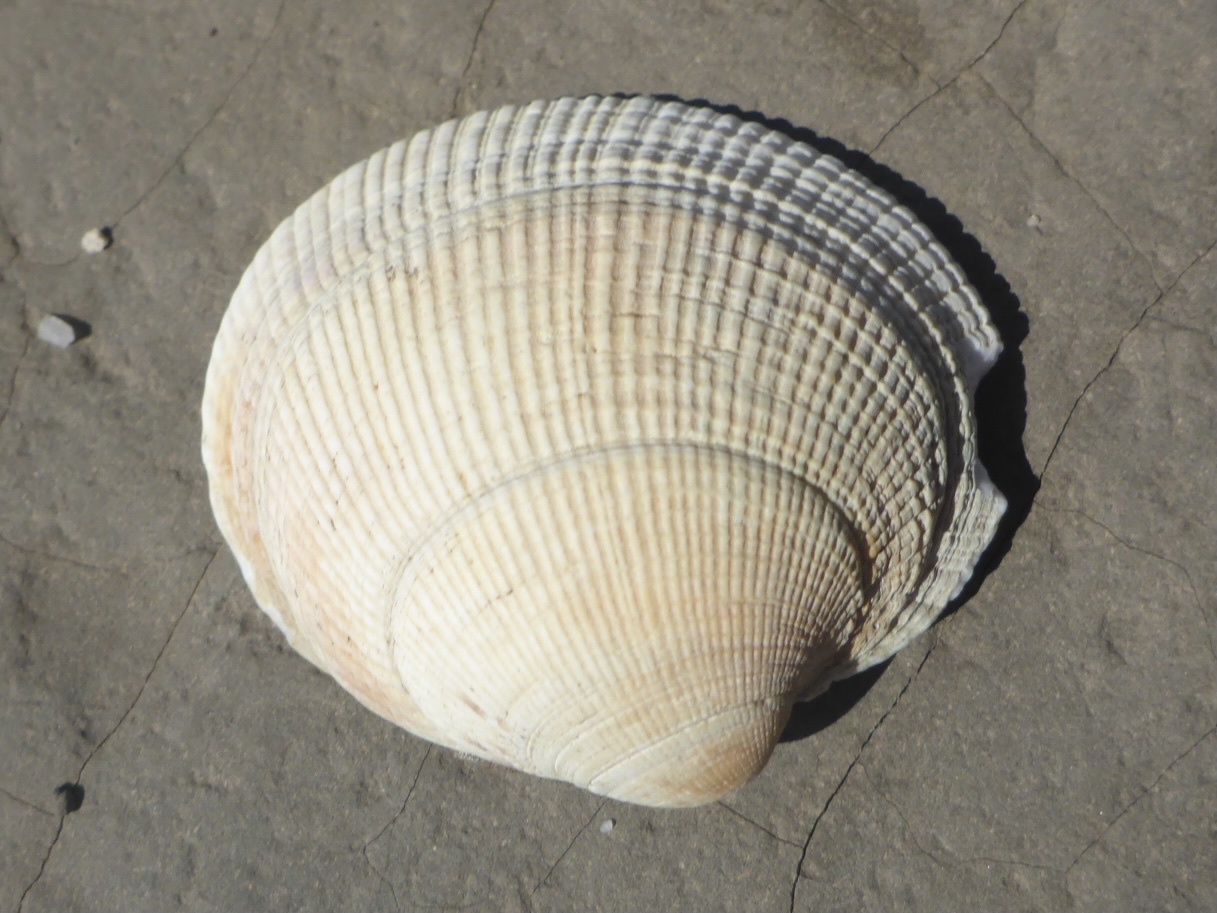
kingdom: Animalia
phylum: Mollusca
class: Bivalvia
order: Venerida
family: Veneridae
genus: Leukoma
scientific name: Leukoma staminea
